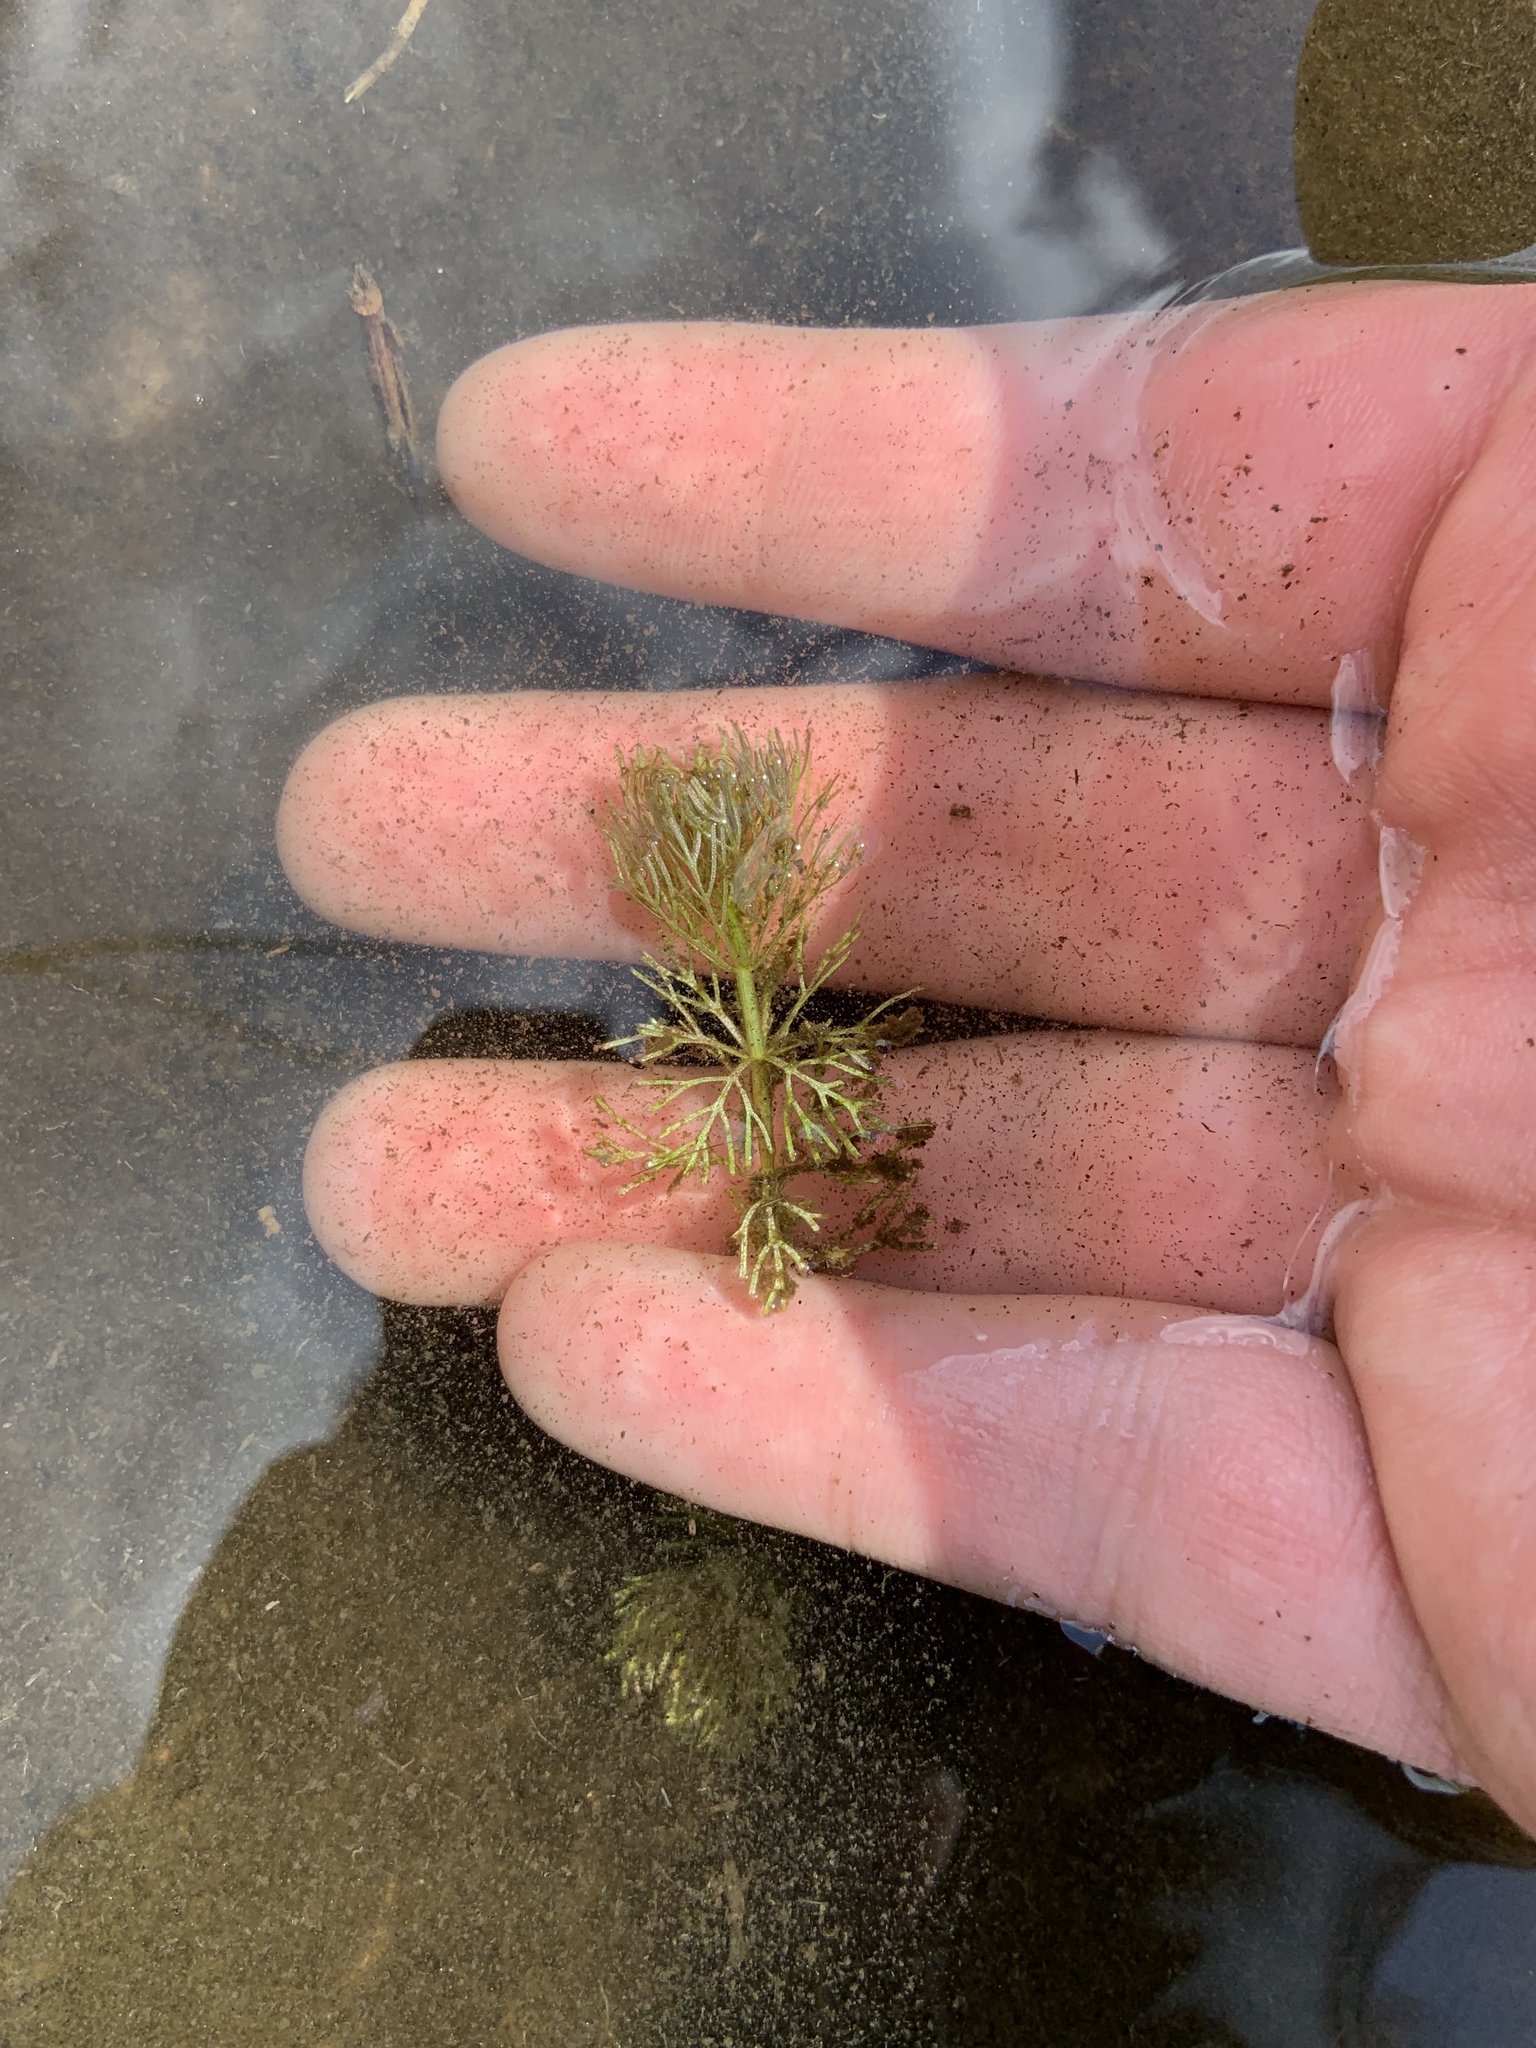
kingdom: Plantae
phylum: Tracheophyta
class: Magnoliopsida
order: Lamiales
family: Plantaginaceae
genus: Limnophila
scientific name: Limnophila sessiliflora
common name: Asian marshweed
